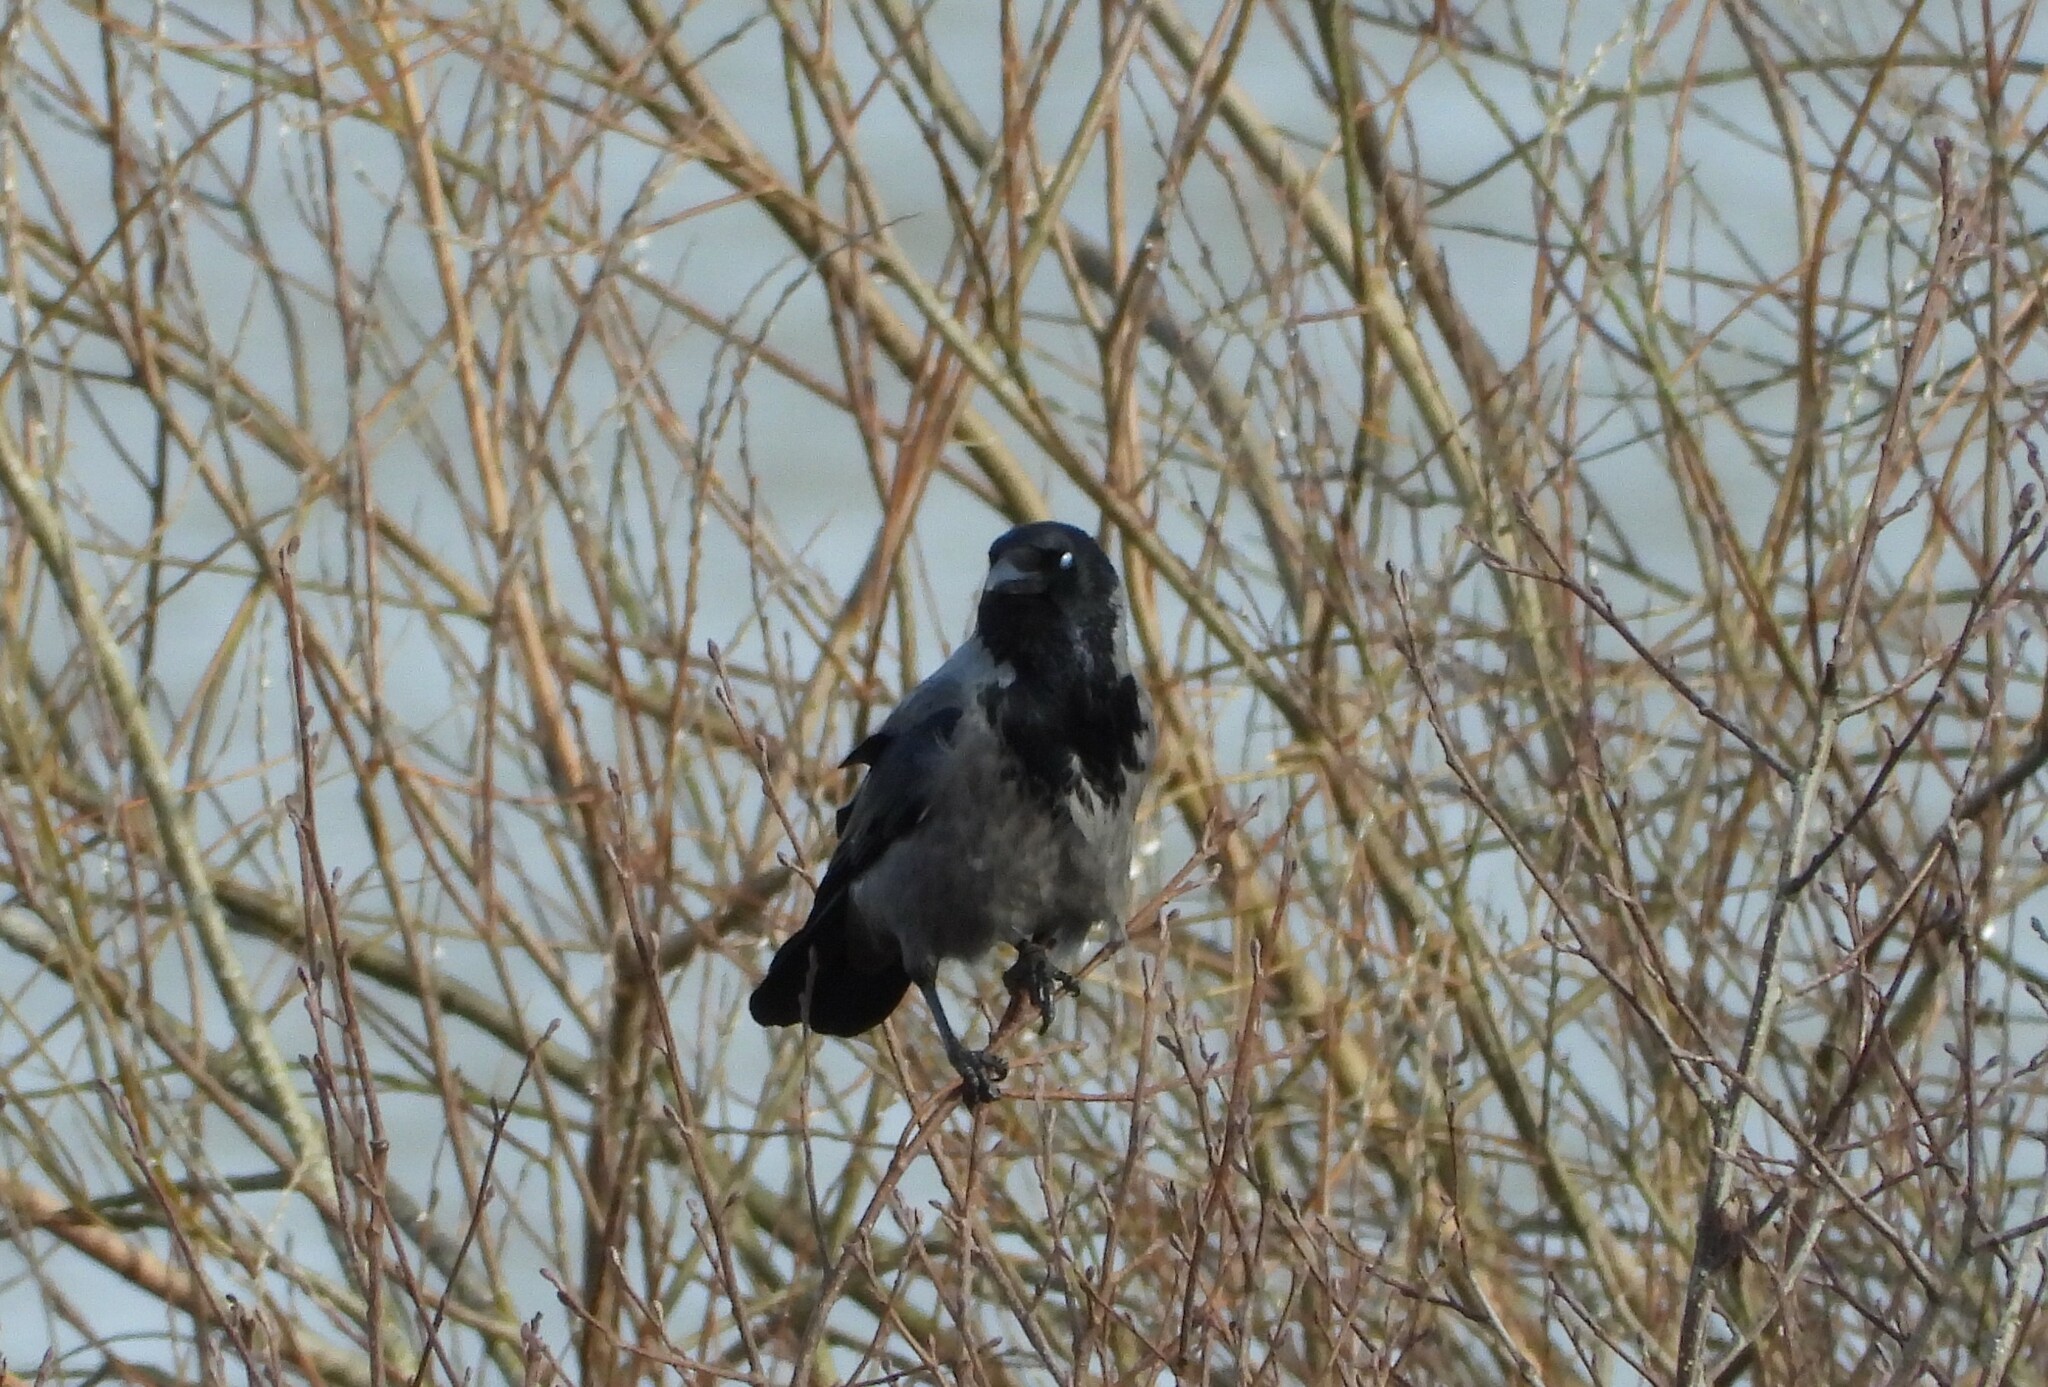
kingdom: Animalia
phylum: Chordata
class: Aves
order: Passeriformes
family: Corvidae
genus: Corvus
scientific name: Corvus cornix
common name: Hooded crow
